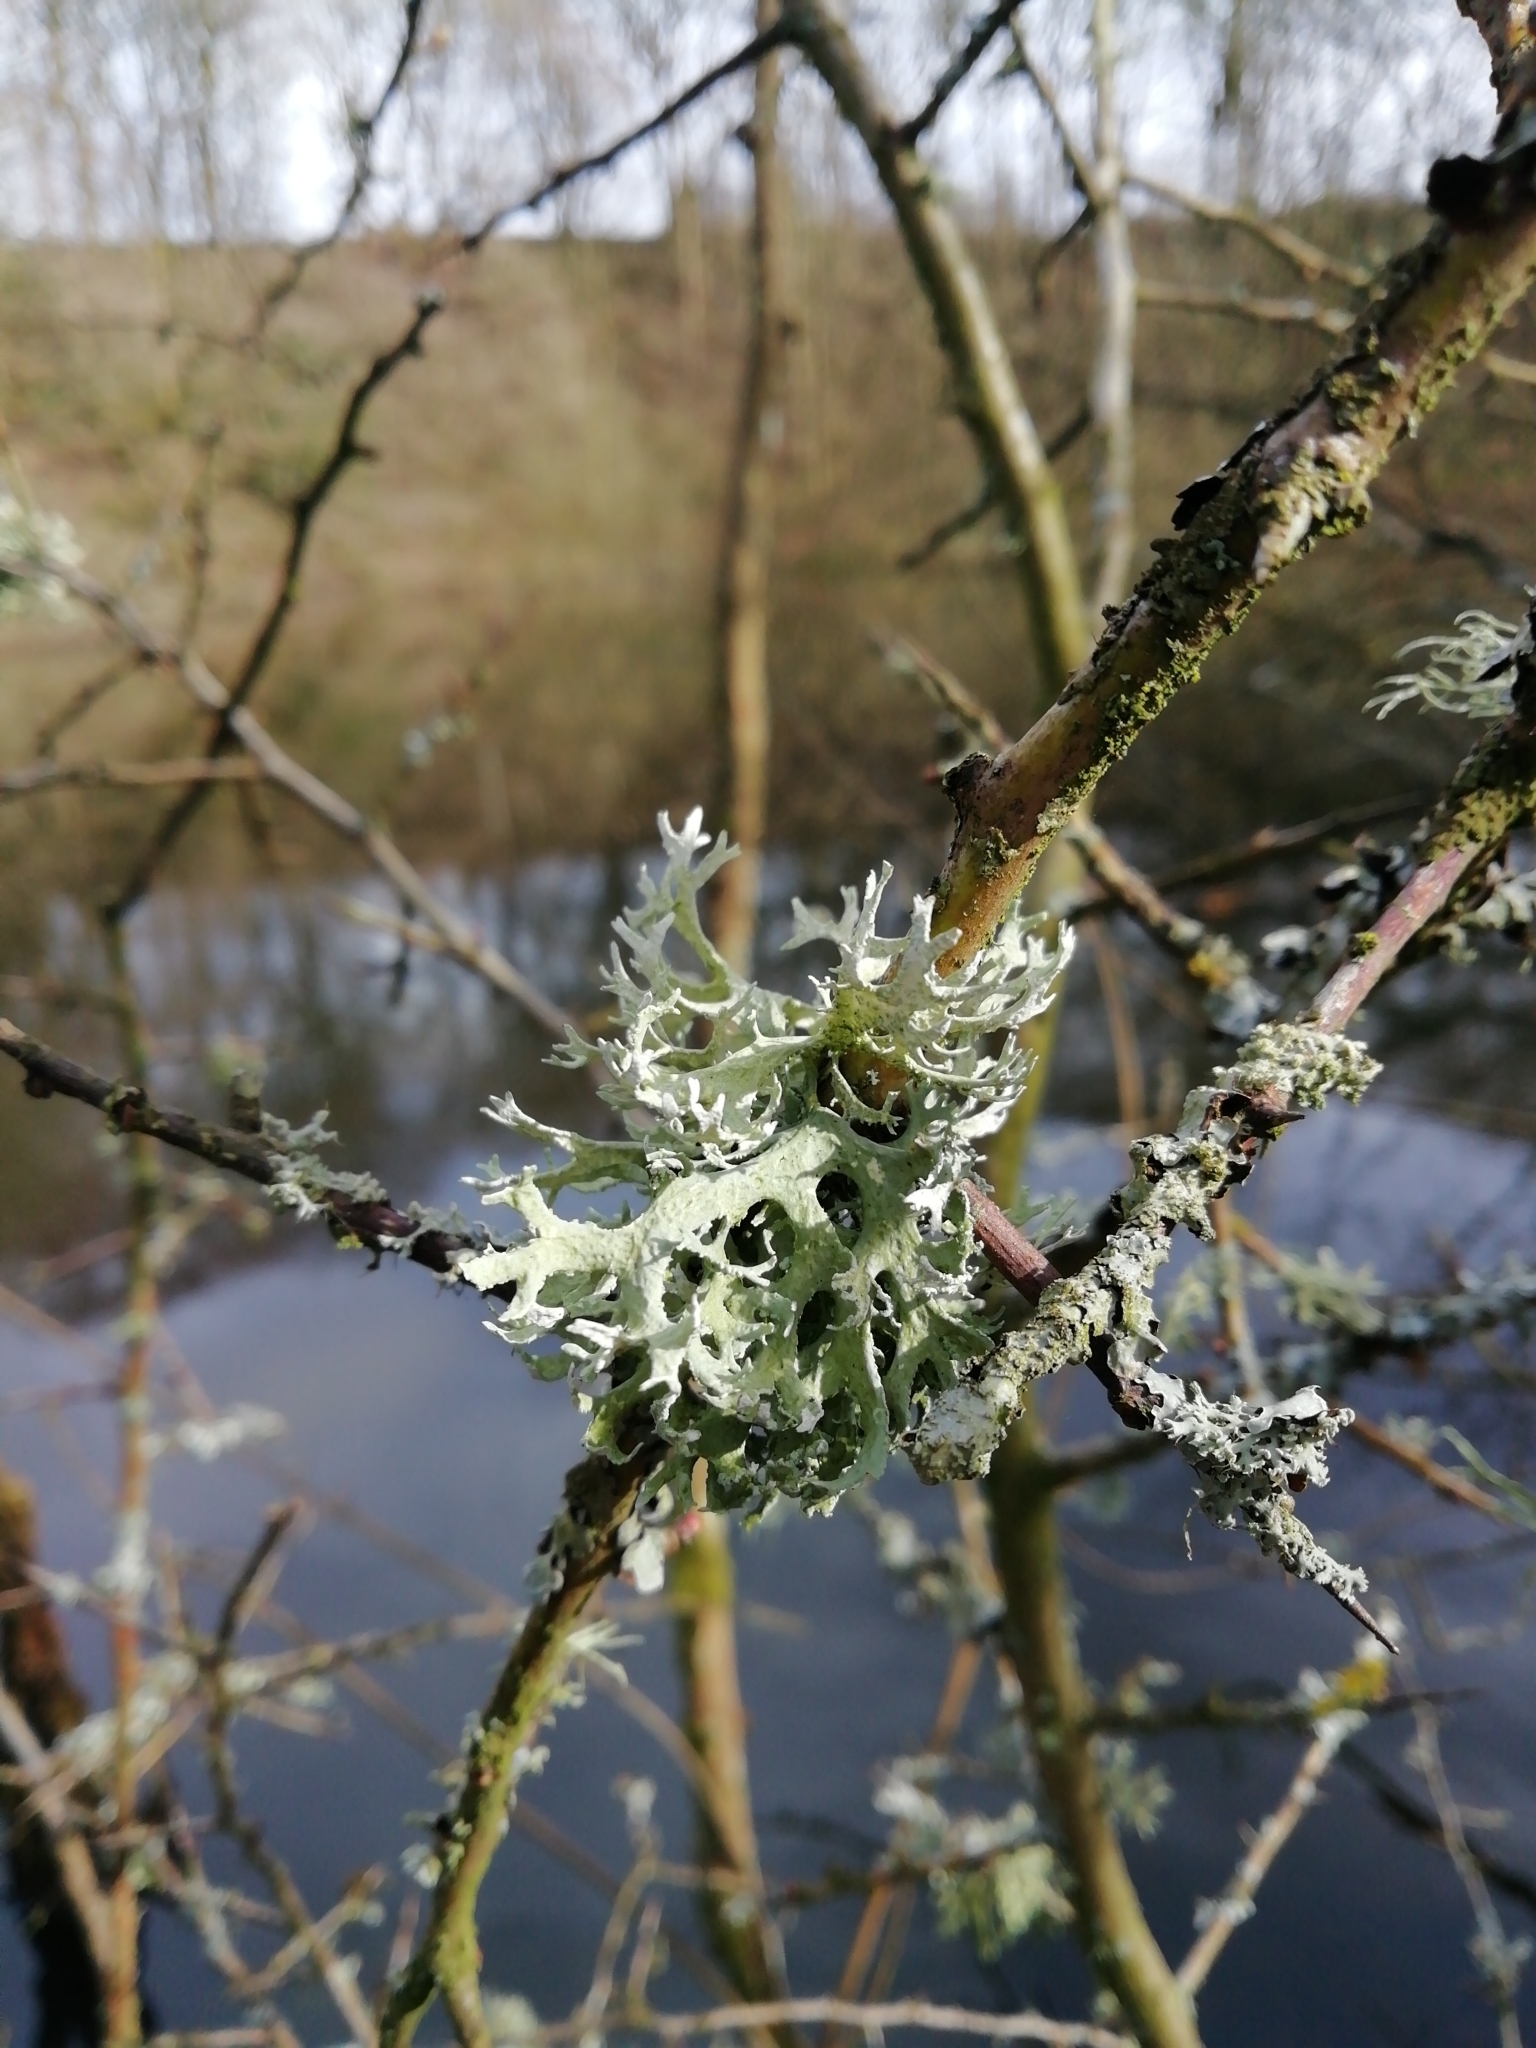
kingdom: Fungi
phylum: Ascomycota
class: Lecanoromycetes
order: Lecanorales
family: Parmeliaceae
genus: Evernia
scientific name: Evernia prunastri
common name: Oak moss
